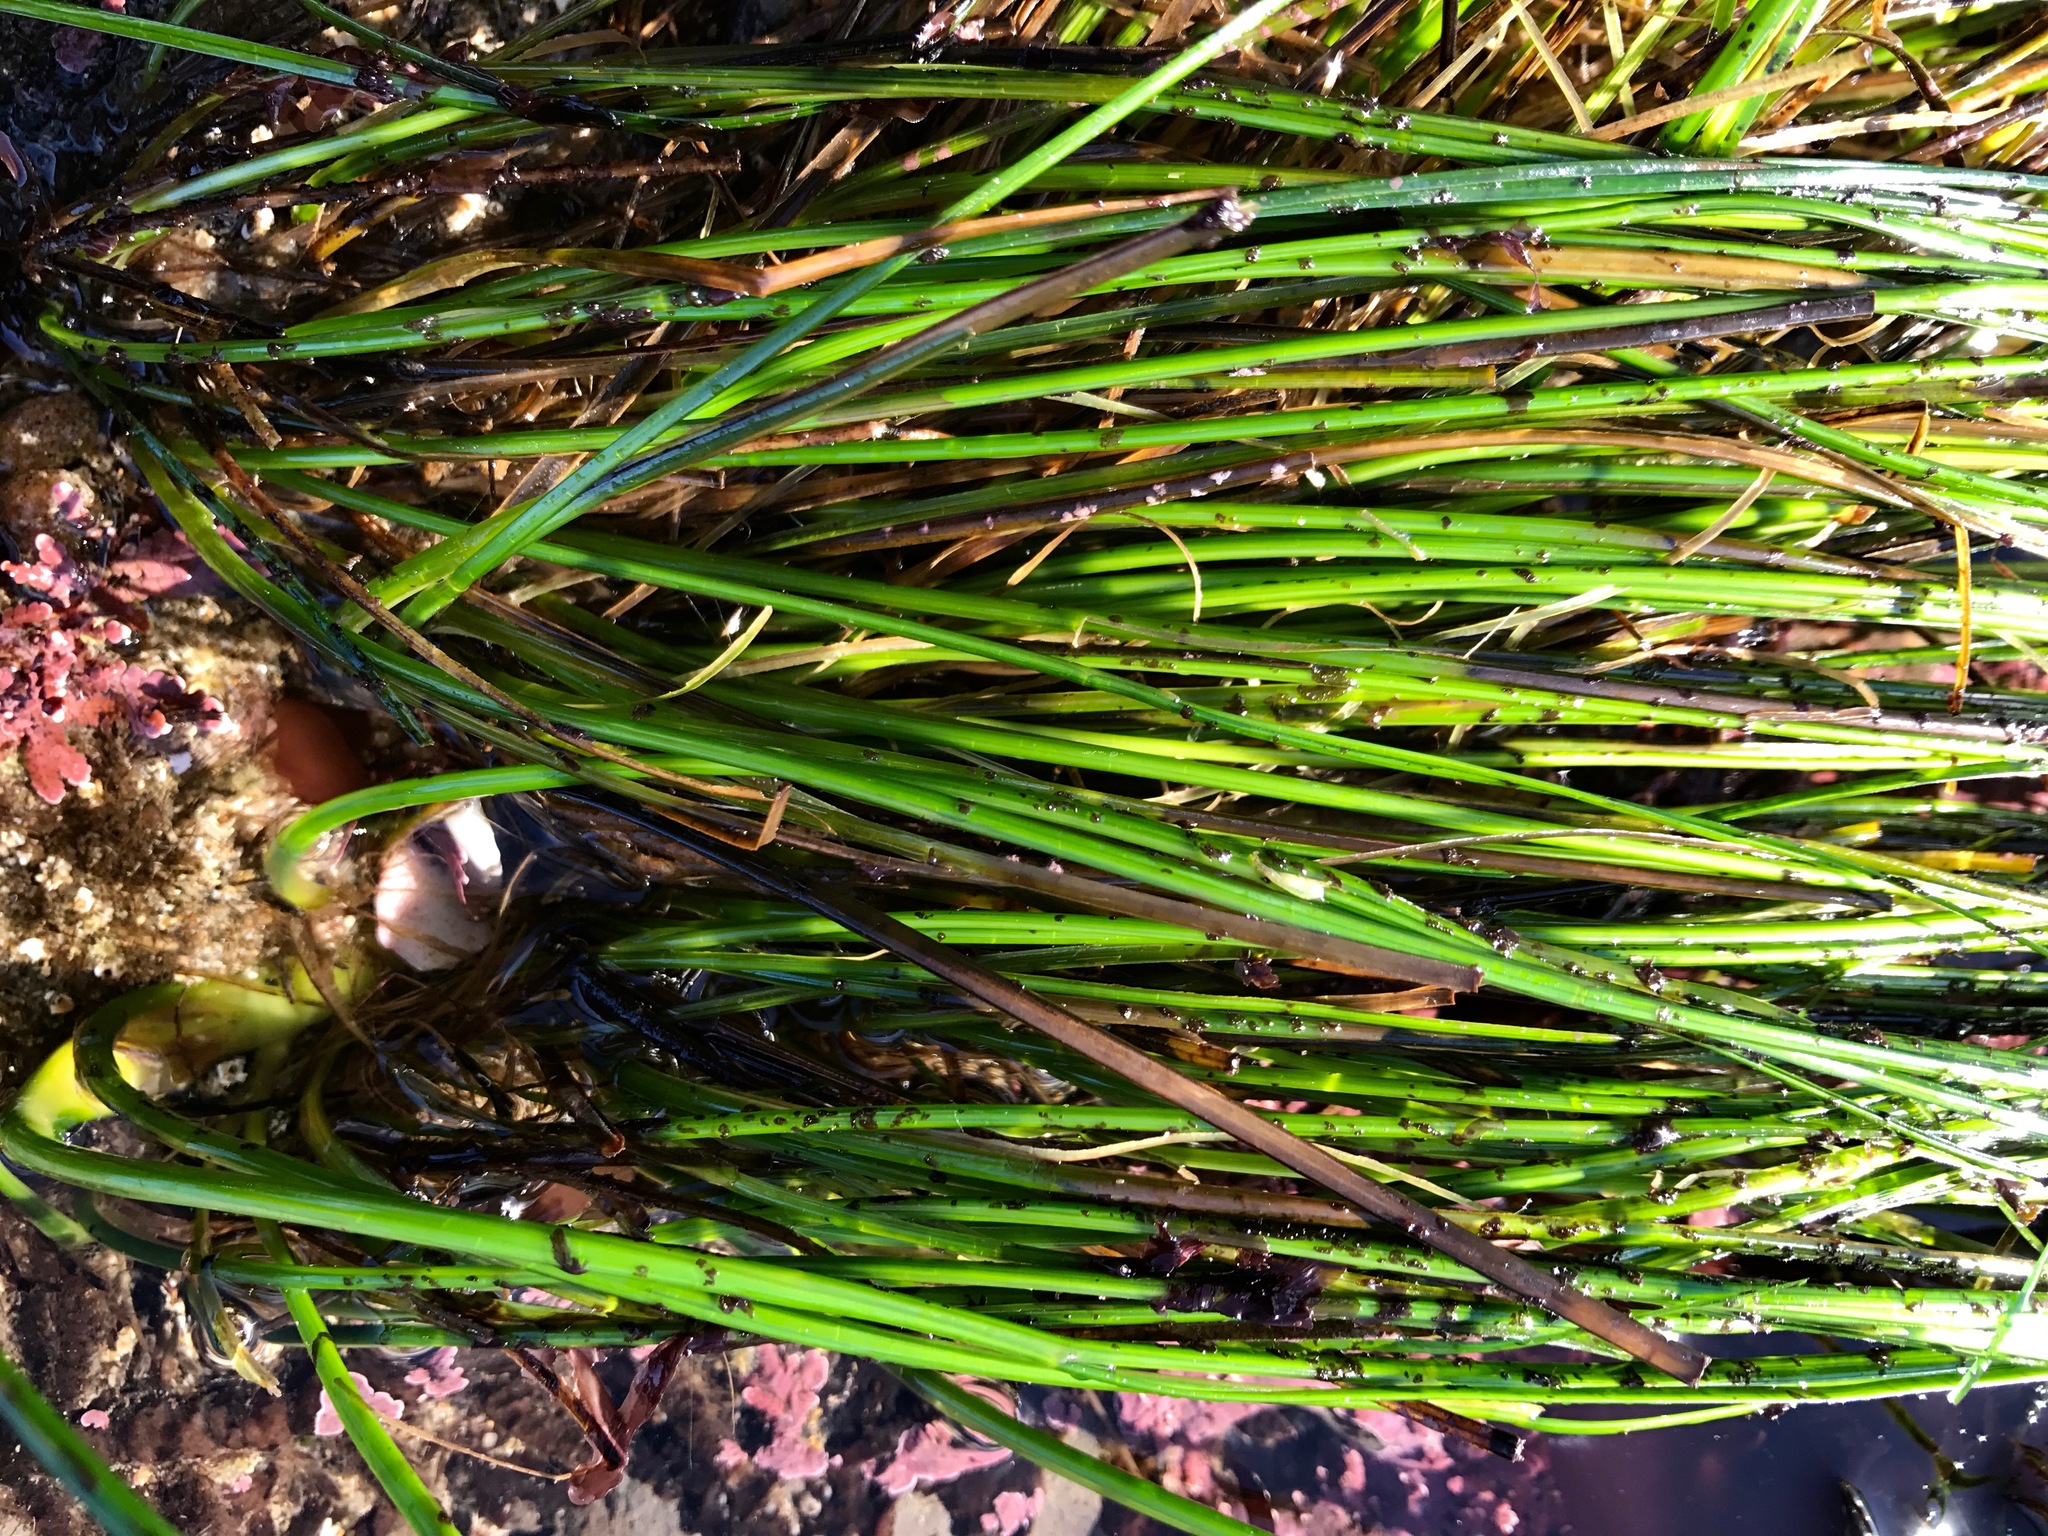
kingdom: Plantae
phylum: Tracheophyta
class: Liliopsida
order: Alismatales
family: Zosteraceae
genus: Phyllospadix
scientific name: Phyllospadix torreyi
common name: Surfgrass
